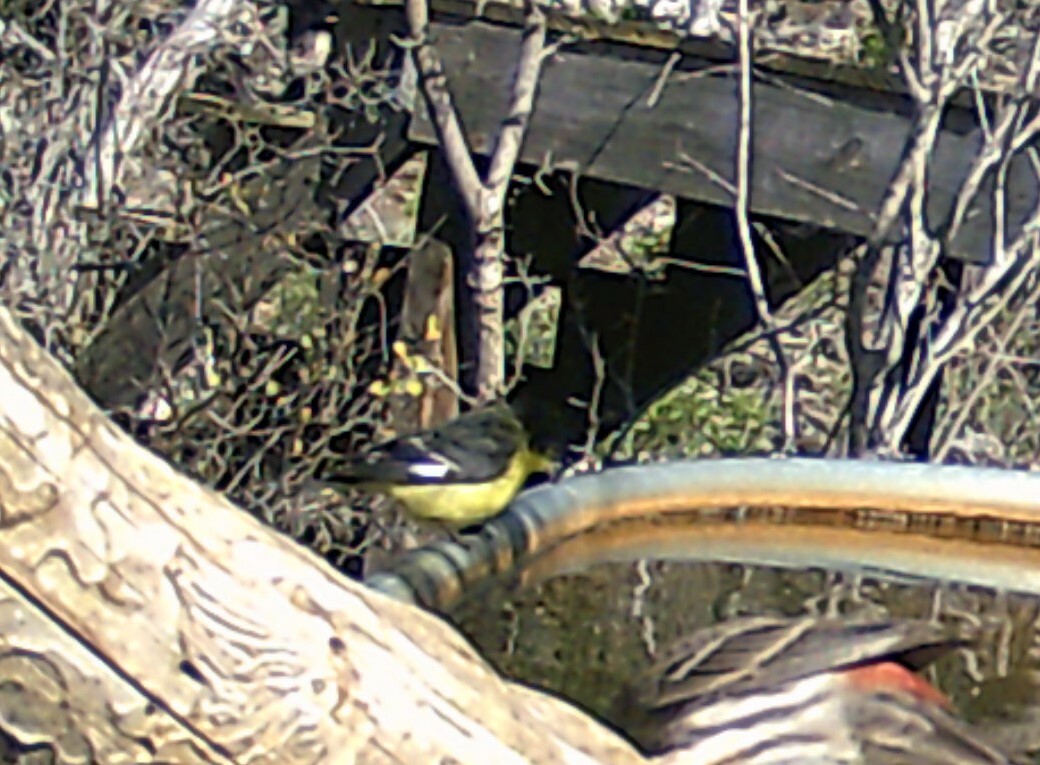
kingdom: Animalia
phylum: Chordata
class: Aves
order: Passeriformes
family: Fringillidae
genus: Spinus
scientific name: Spinus psaltria
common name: Lesser goldfinch
